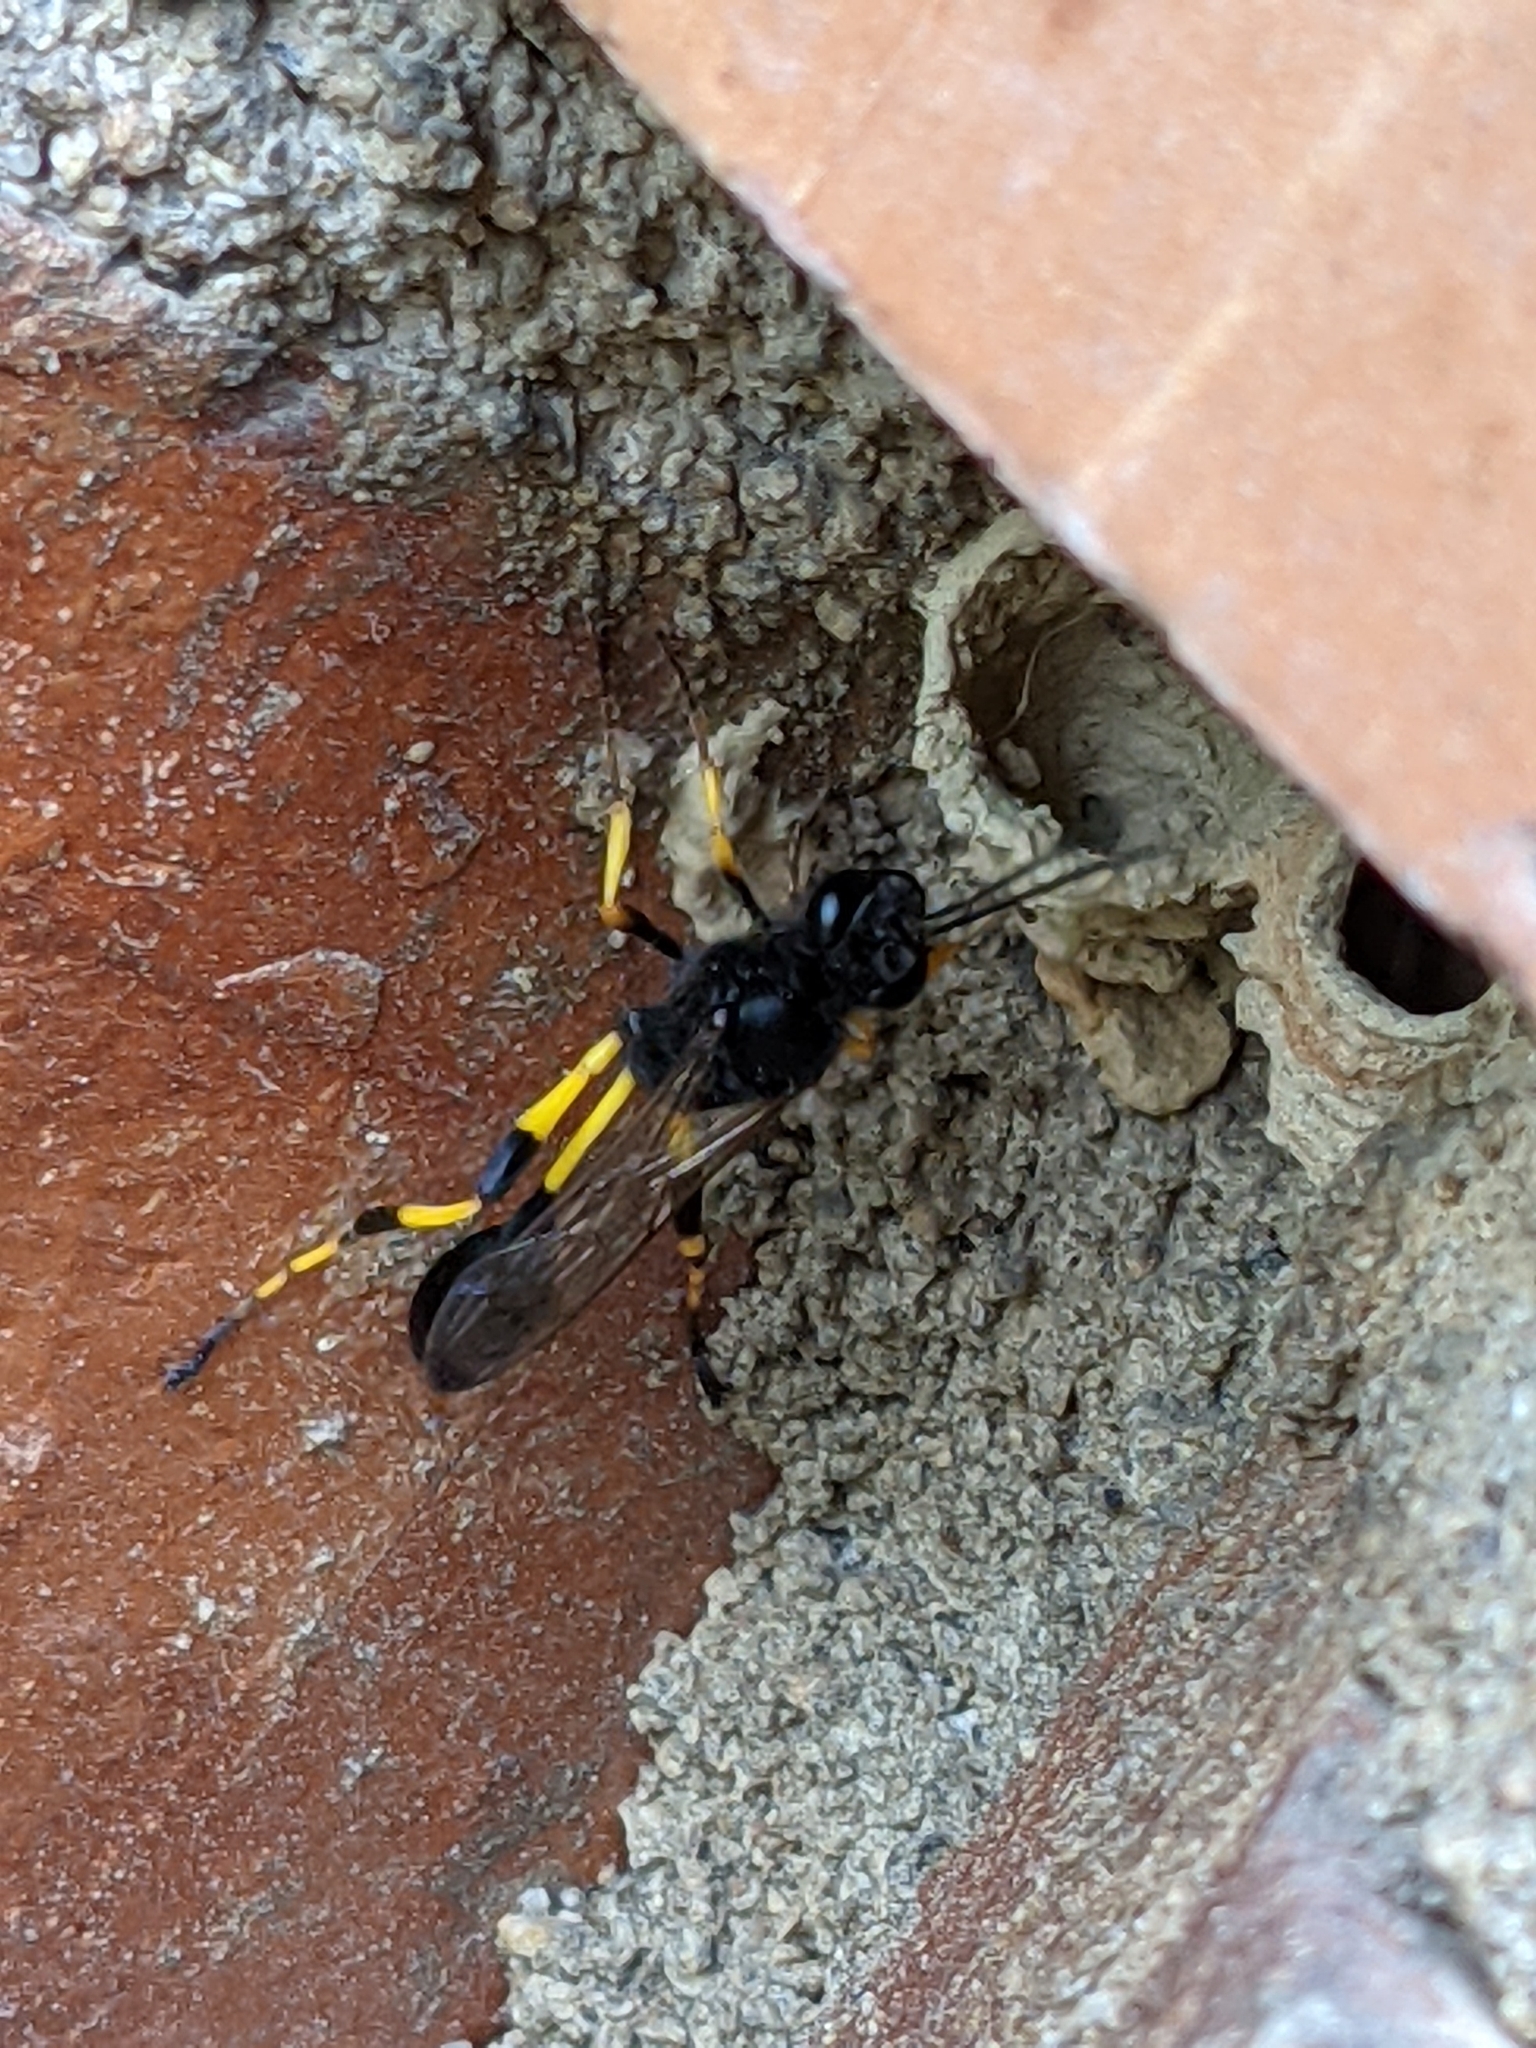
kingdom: Animalia
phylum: Arthropoda
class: Insecta
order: Hymenoptera
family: Sphecidae
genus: Sceliphron
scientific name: Sceliphron spirifex
